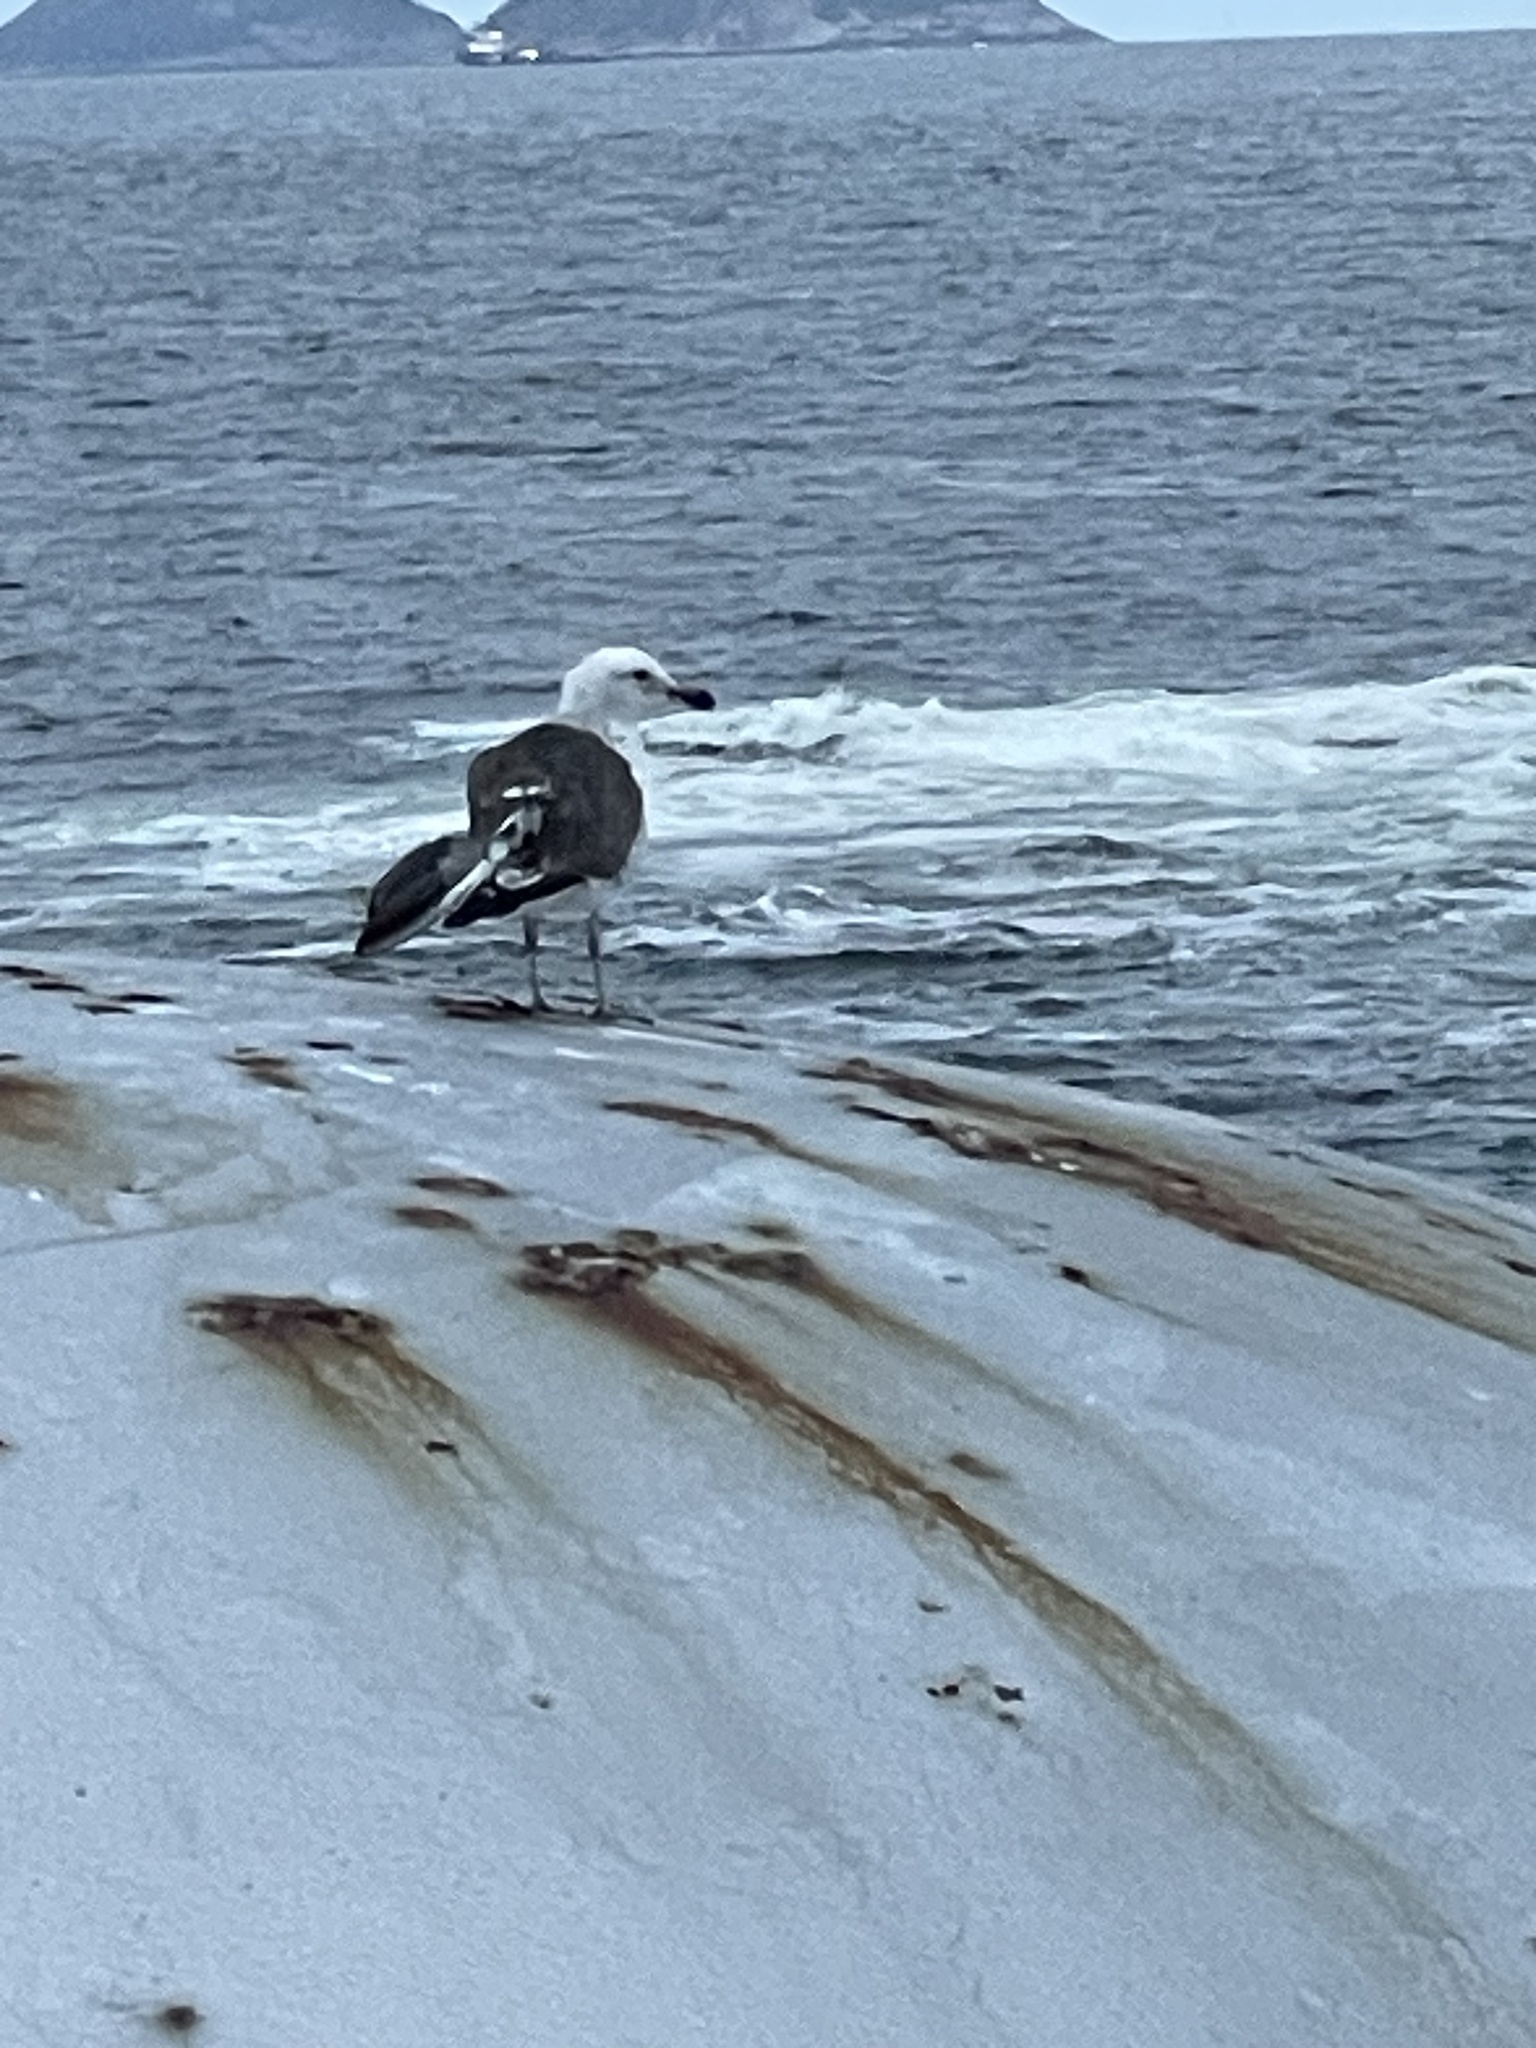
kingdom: Animalia
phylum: Chordata
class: Aves
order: Charadriiformes
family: Laridae
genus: Larus
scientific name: Larus dominicanus
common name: Kelp gull
